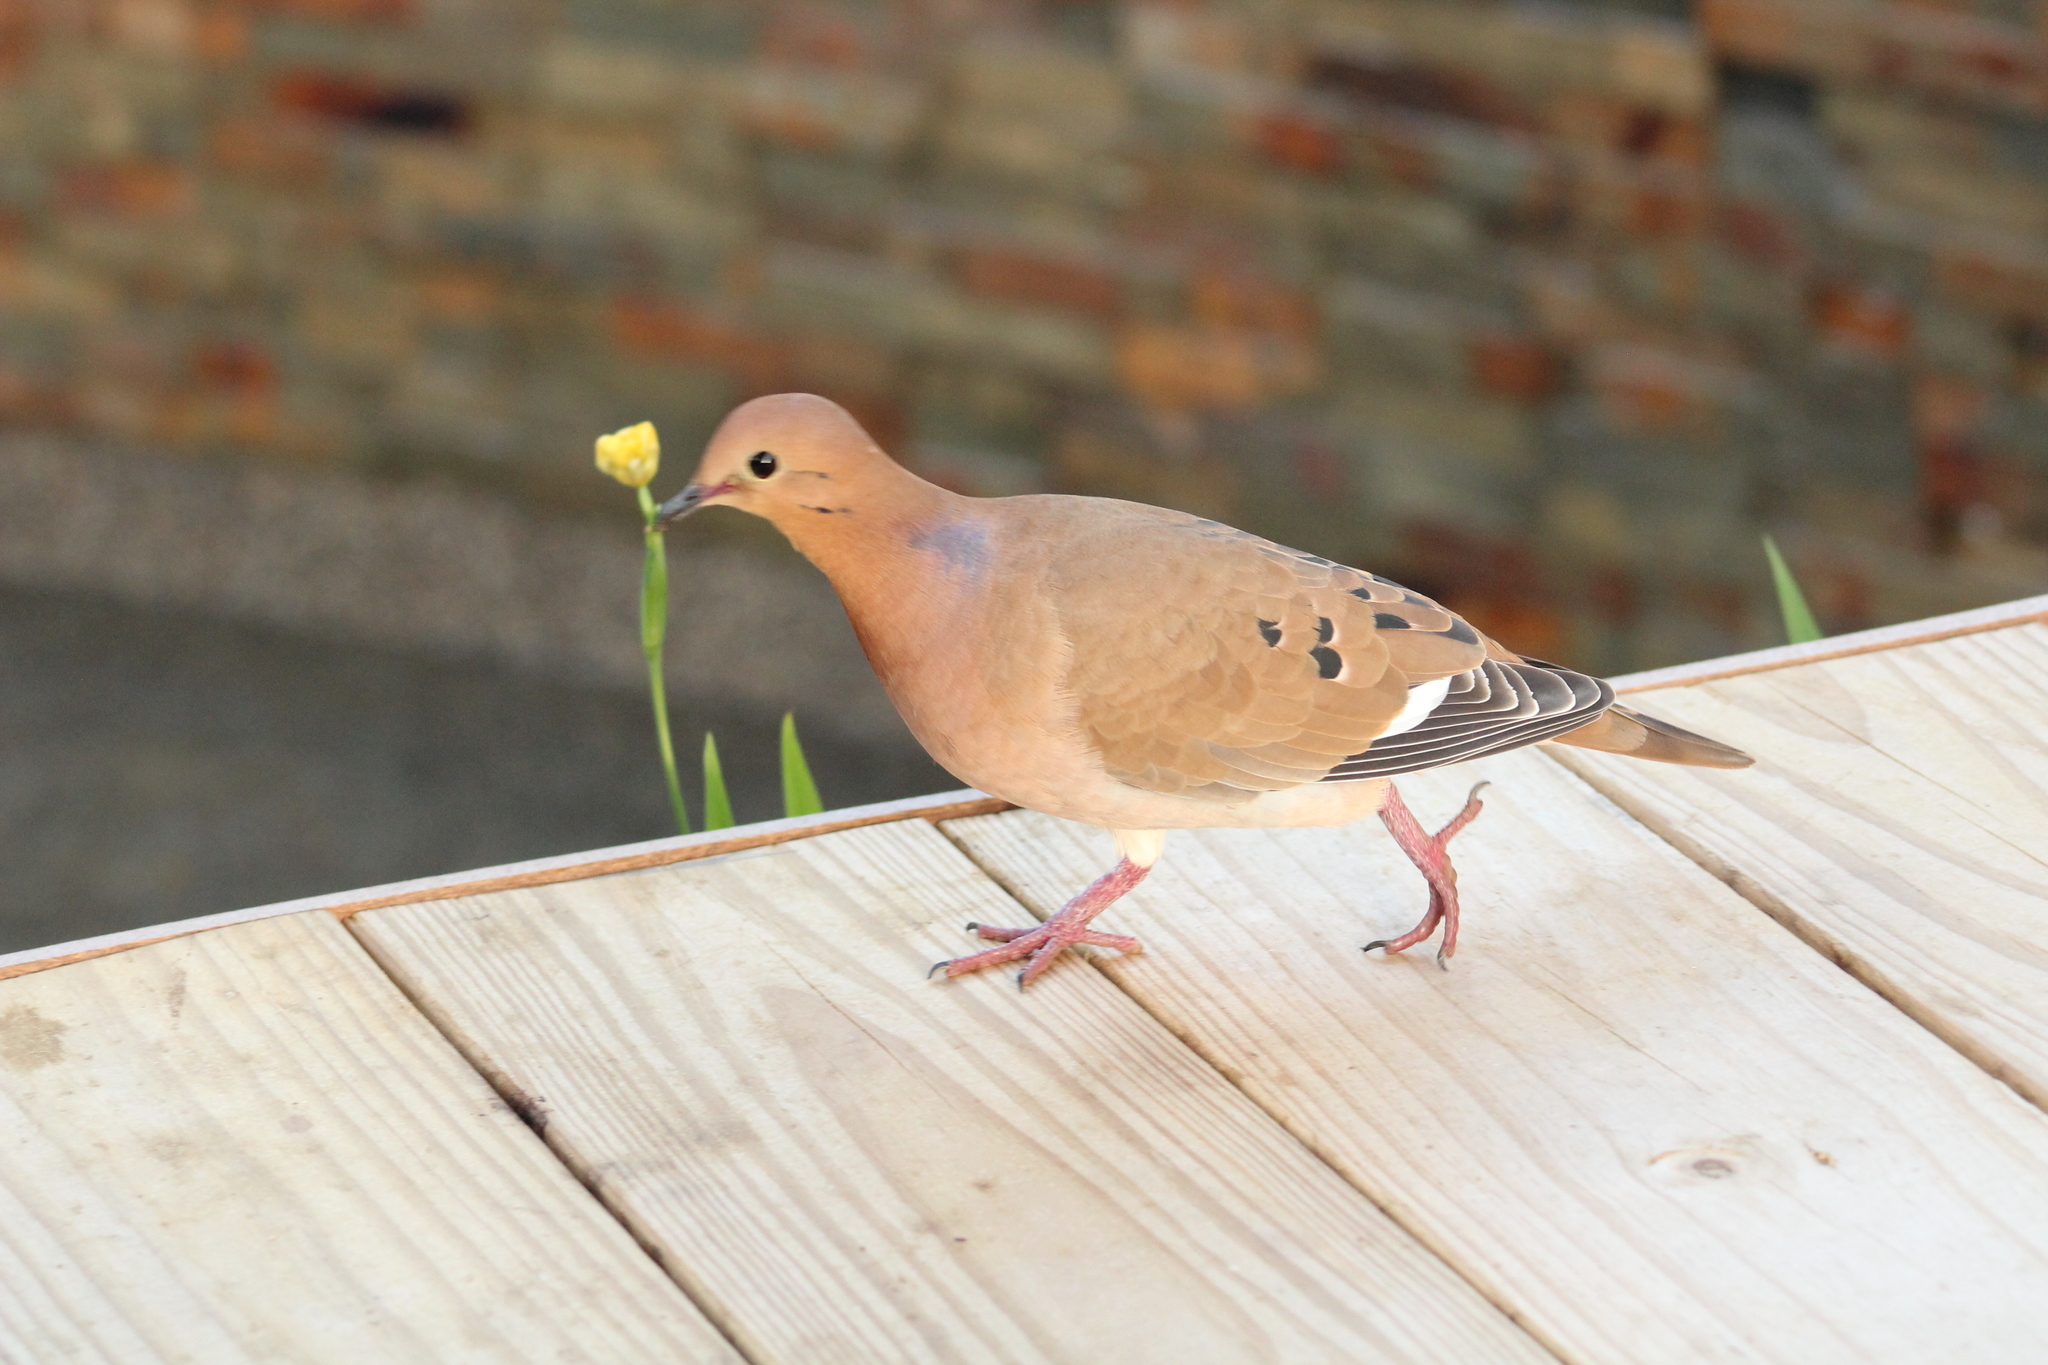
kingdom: Animalia
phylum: Chordata
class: Aves
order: Columbiformes
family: Columbidae
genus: Zenaida
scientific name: Zenaida aurita
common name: Zenaida dove
